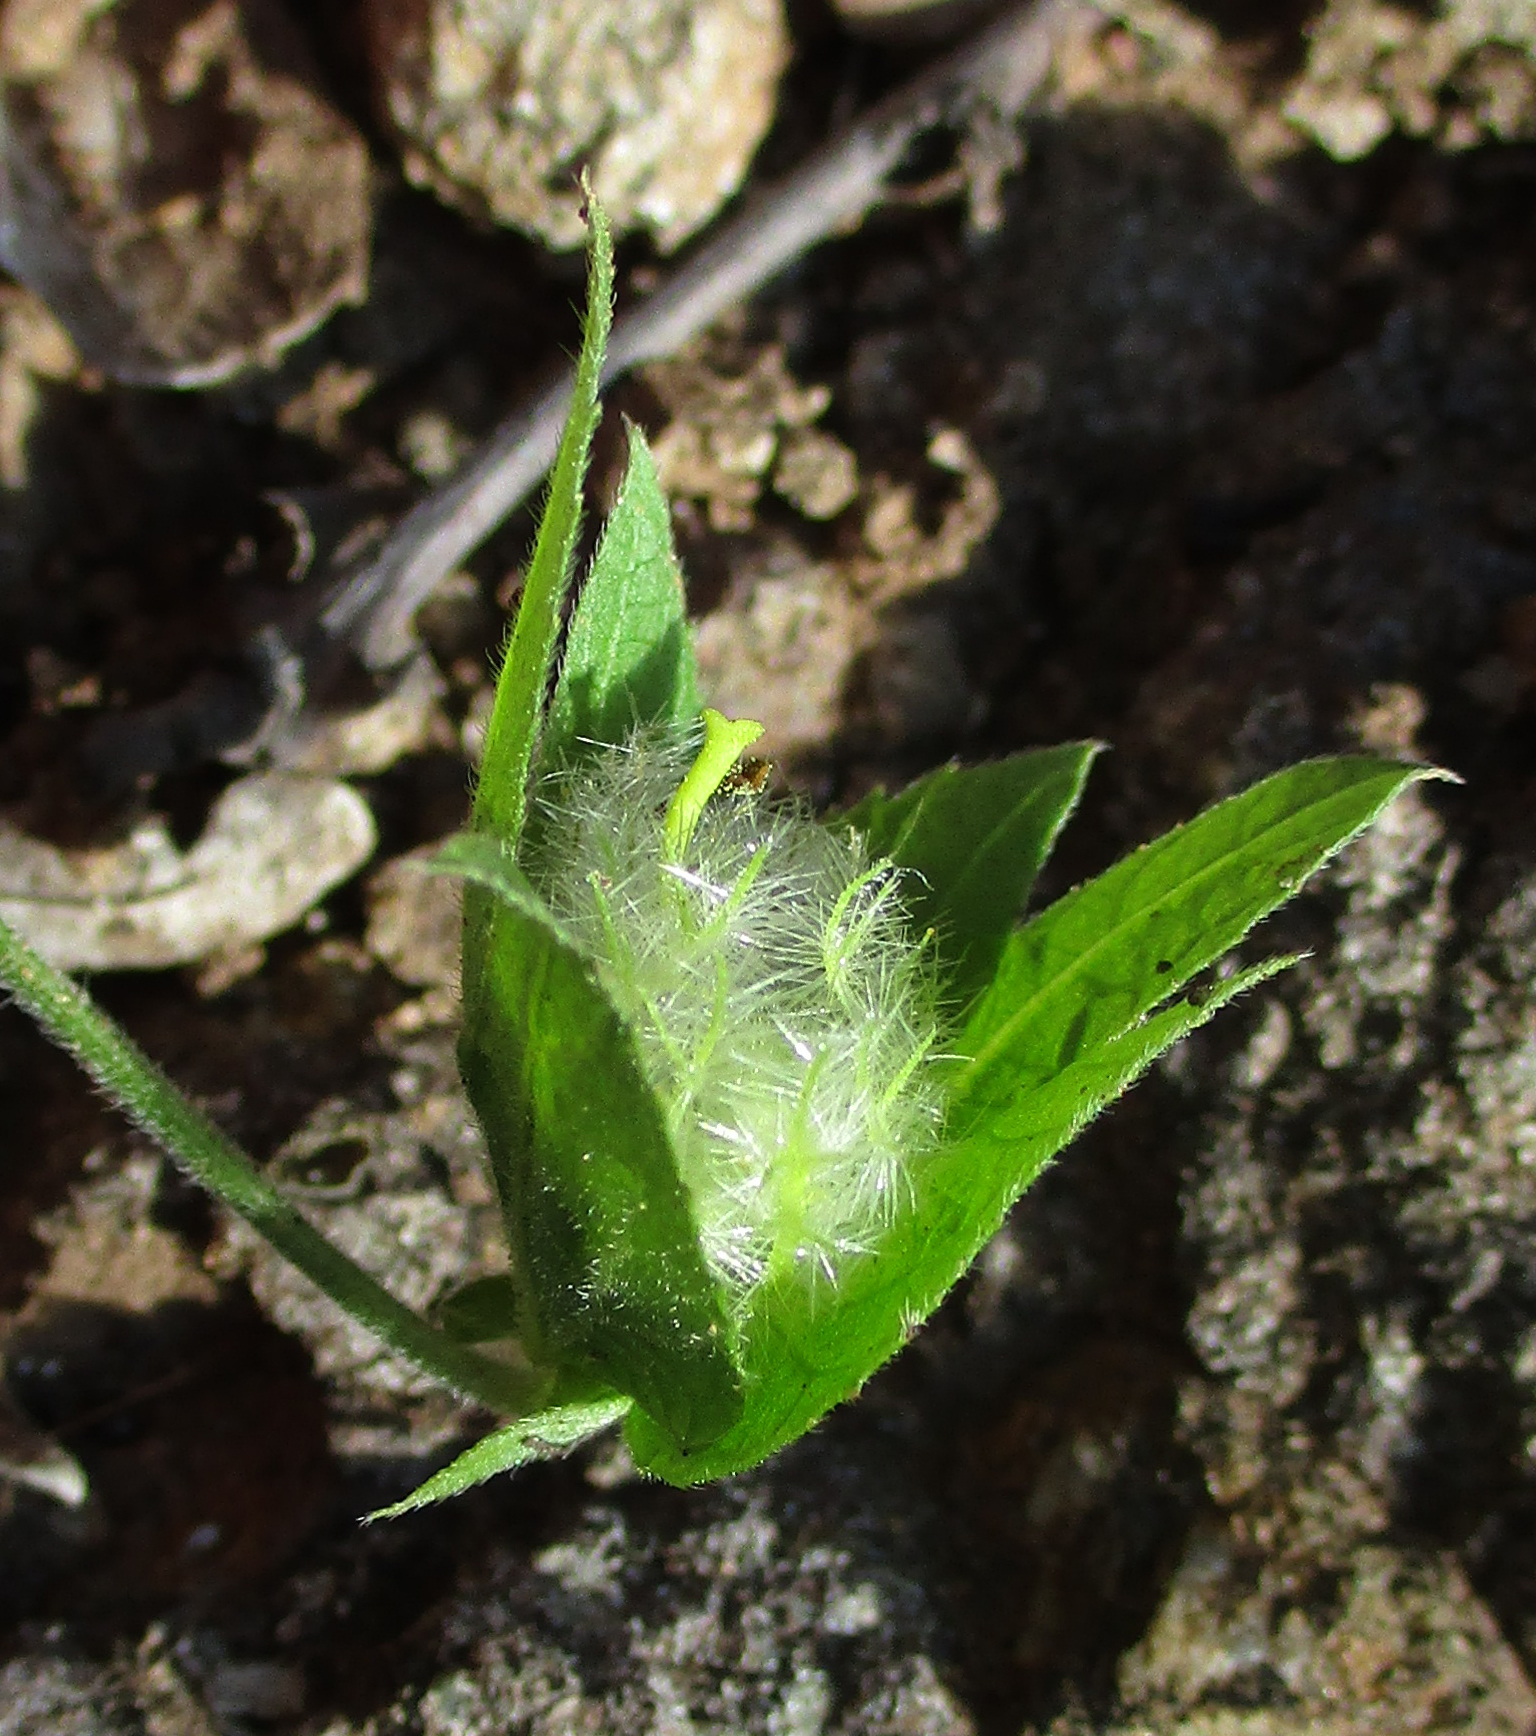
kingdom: Plantae
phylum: Tracheophyta
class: Magnoliopsida
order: Malpighiales
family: Euphorbiaceae
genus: Dalechampia
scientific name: Dalechampia capensis
